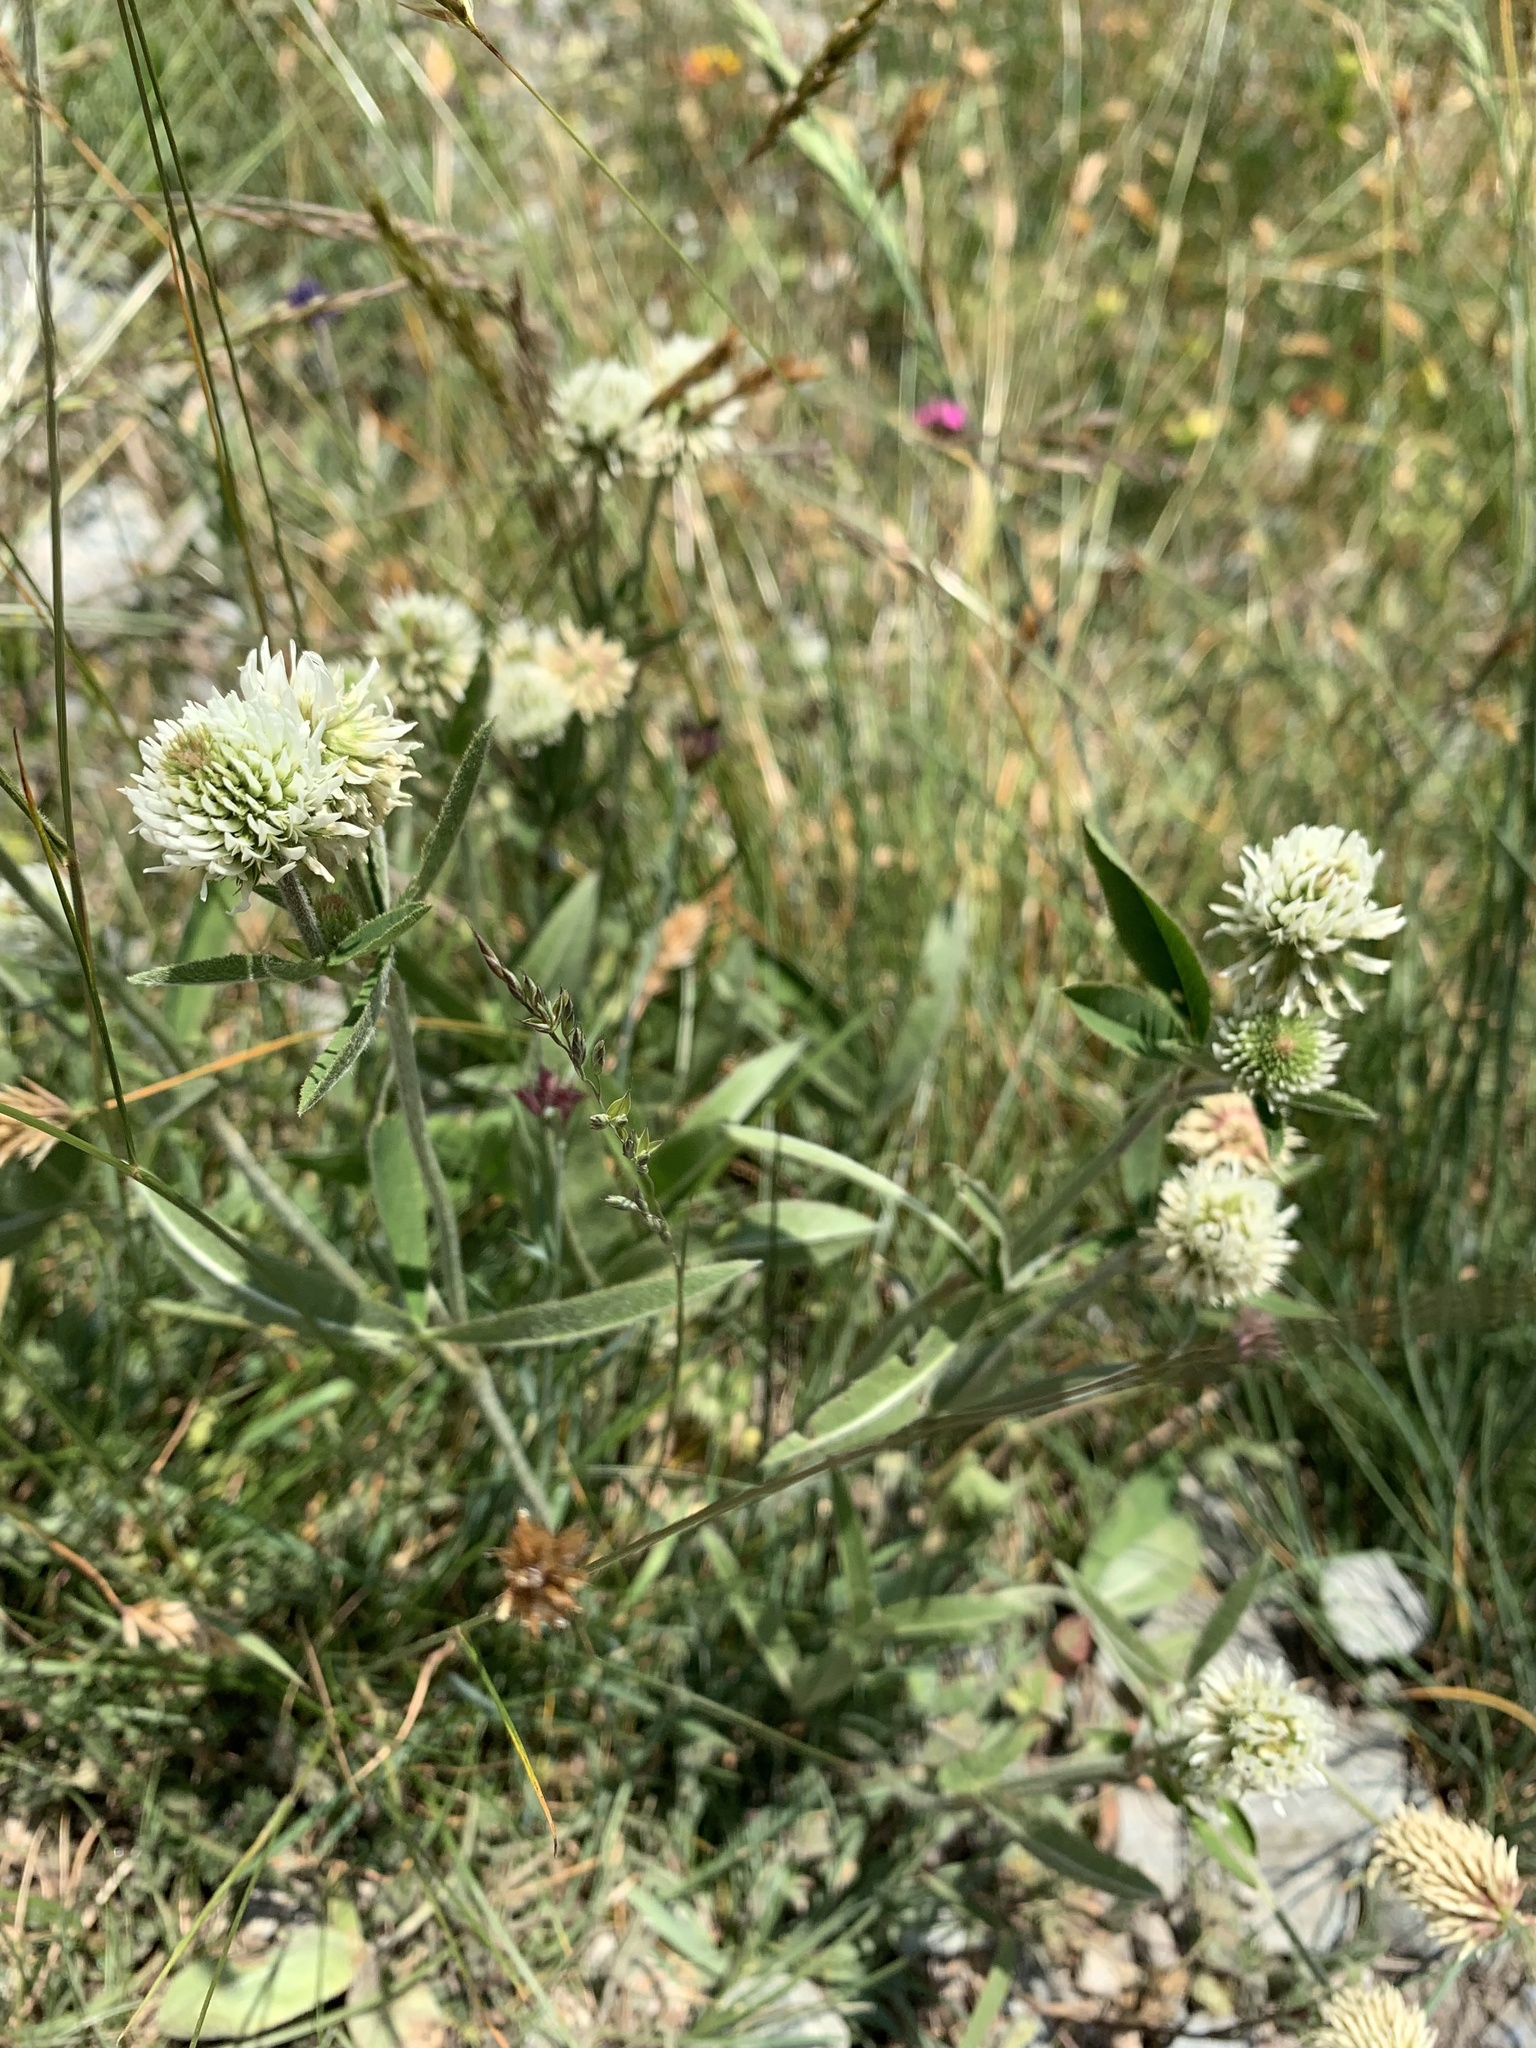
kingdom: Plantae
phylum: Tracheophyta
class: Magnoliopsida
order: Fabales
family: Fabaceae
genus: Trifolium
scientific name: Trifolium montanum
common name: Mountain clover
